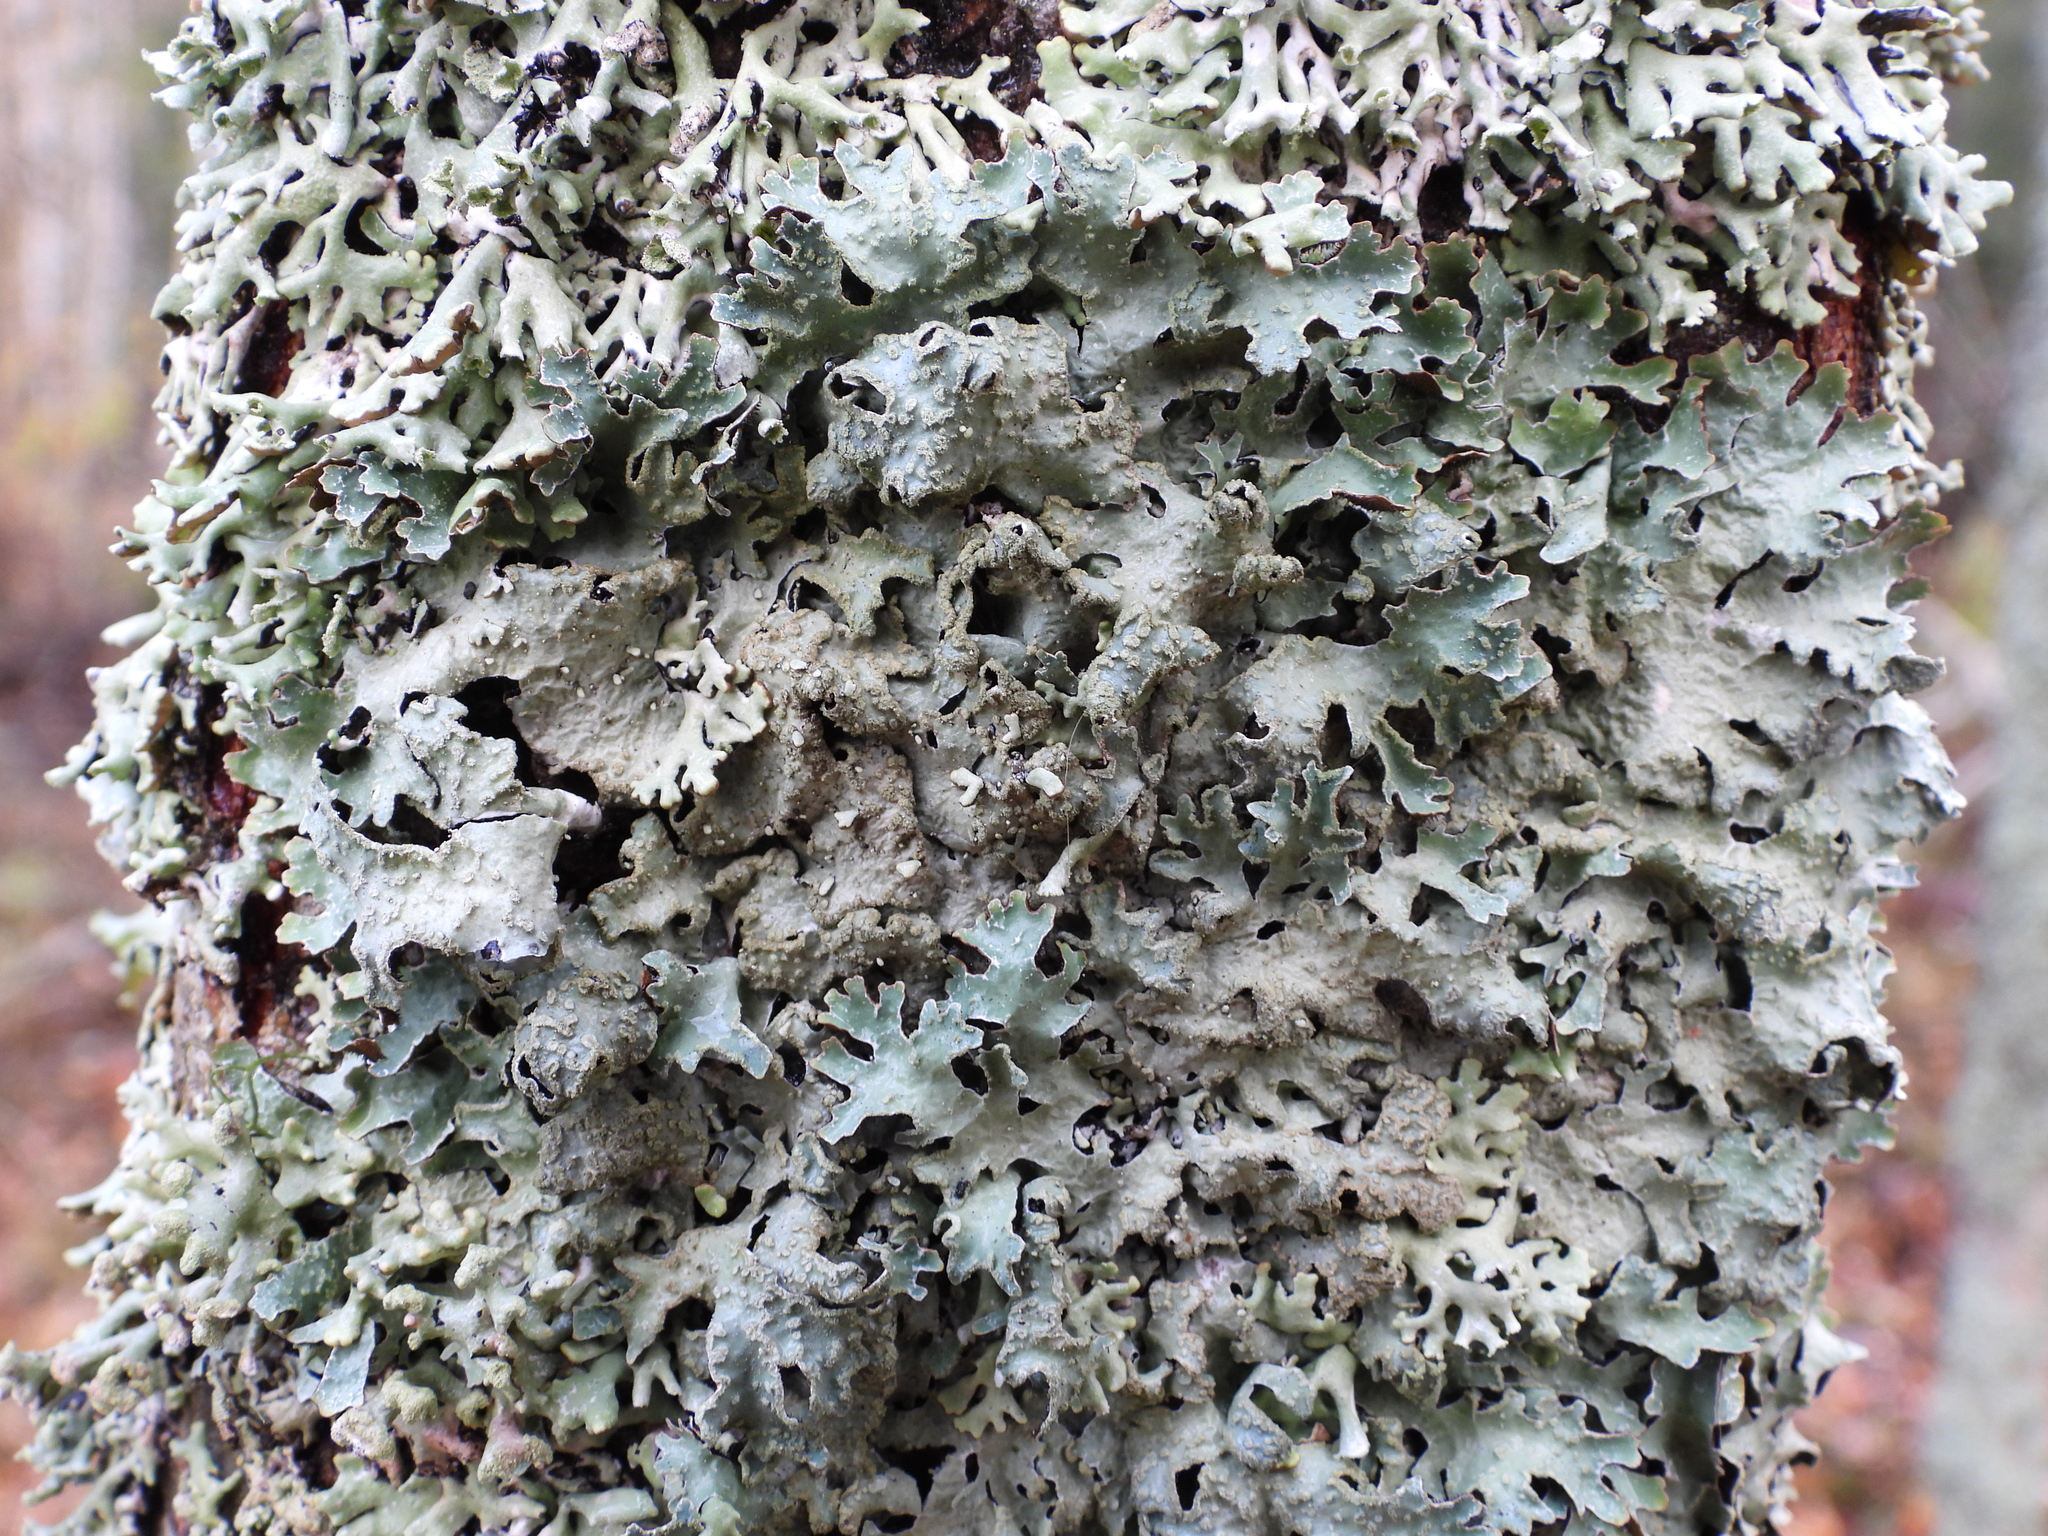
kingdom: Fungi
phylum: Ascomycota
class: Lecanoromycetes
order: Lecanorales
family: Parmeliaceae
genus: Parmelia
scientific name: Parmelia sulcata
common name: Netted shield lichen
